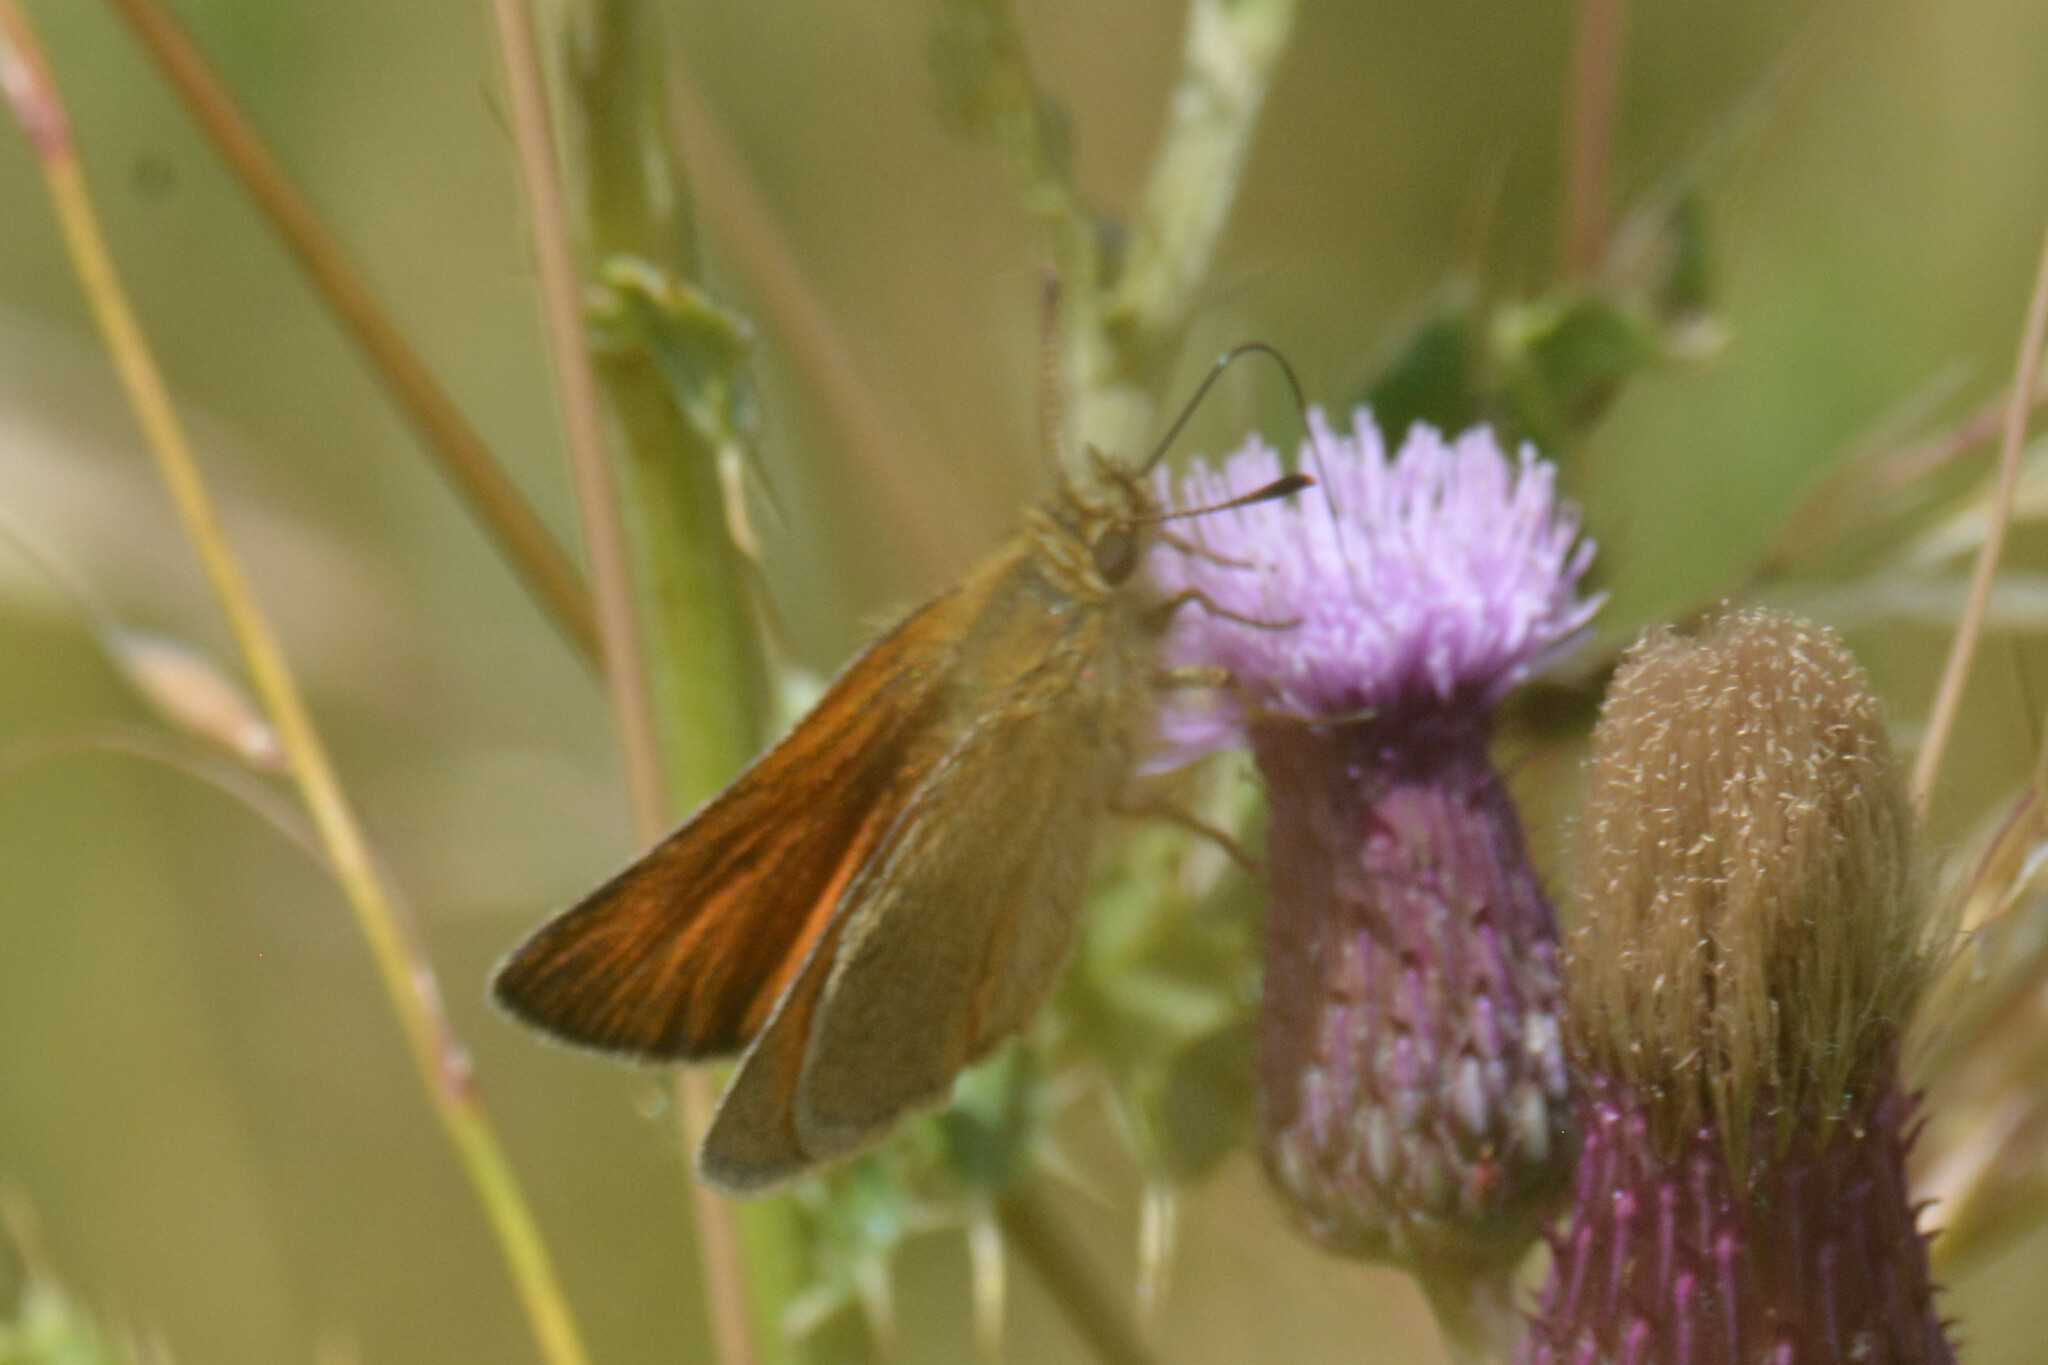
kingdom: Animalia
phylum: Arthropoda
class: Insecta
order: Lepidoptera
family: Hesperiidae
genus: Thymelicus
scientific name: Thymelicus sylvestris
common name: Small skipper
